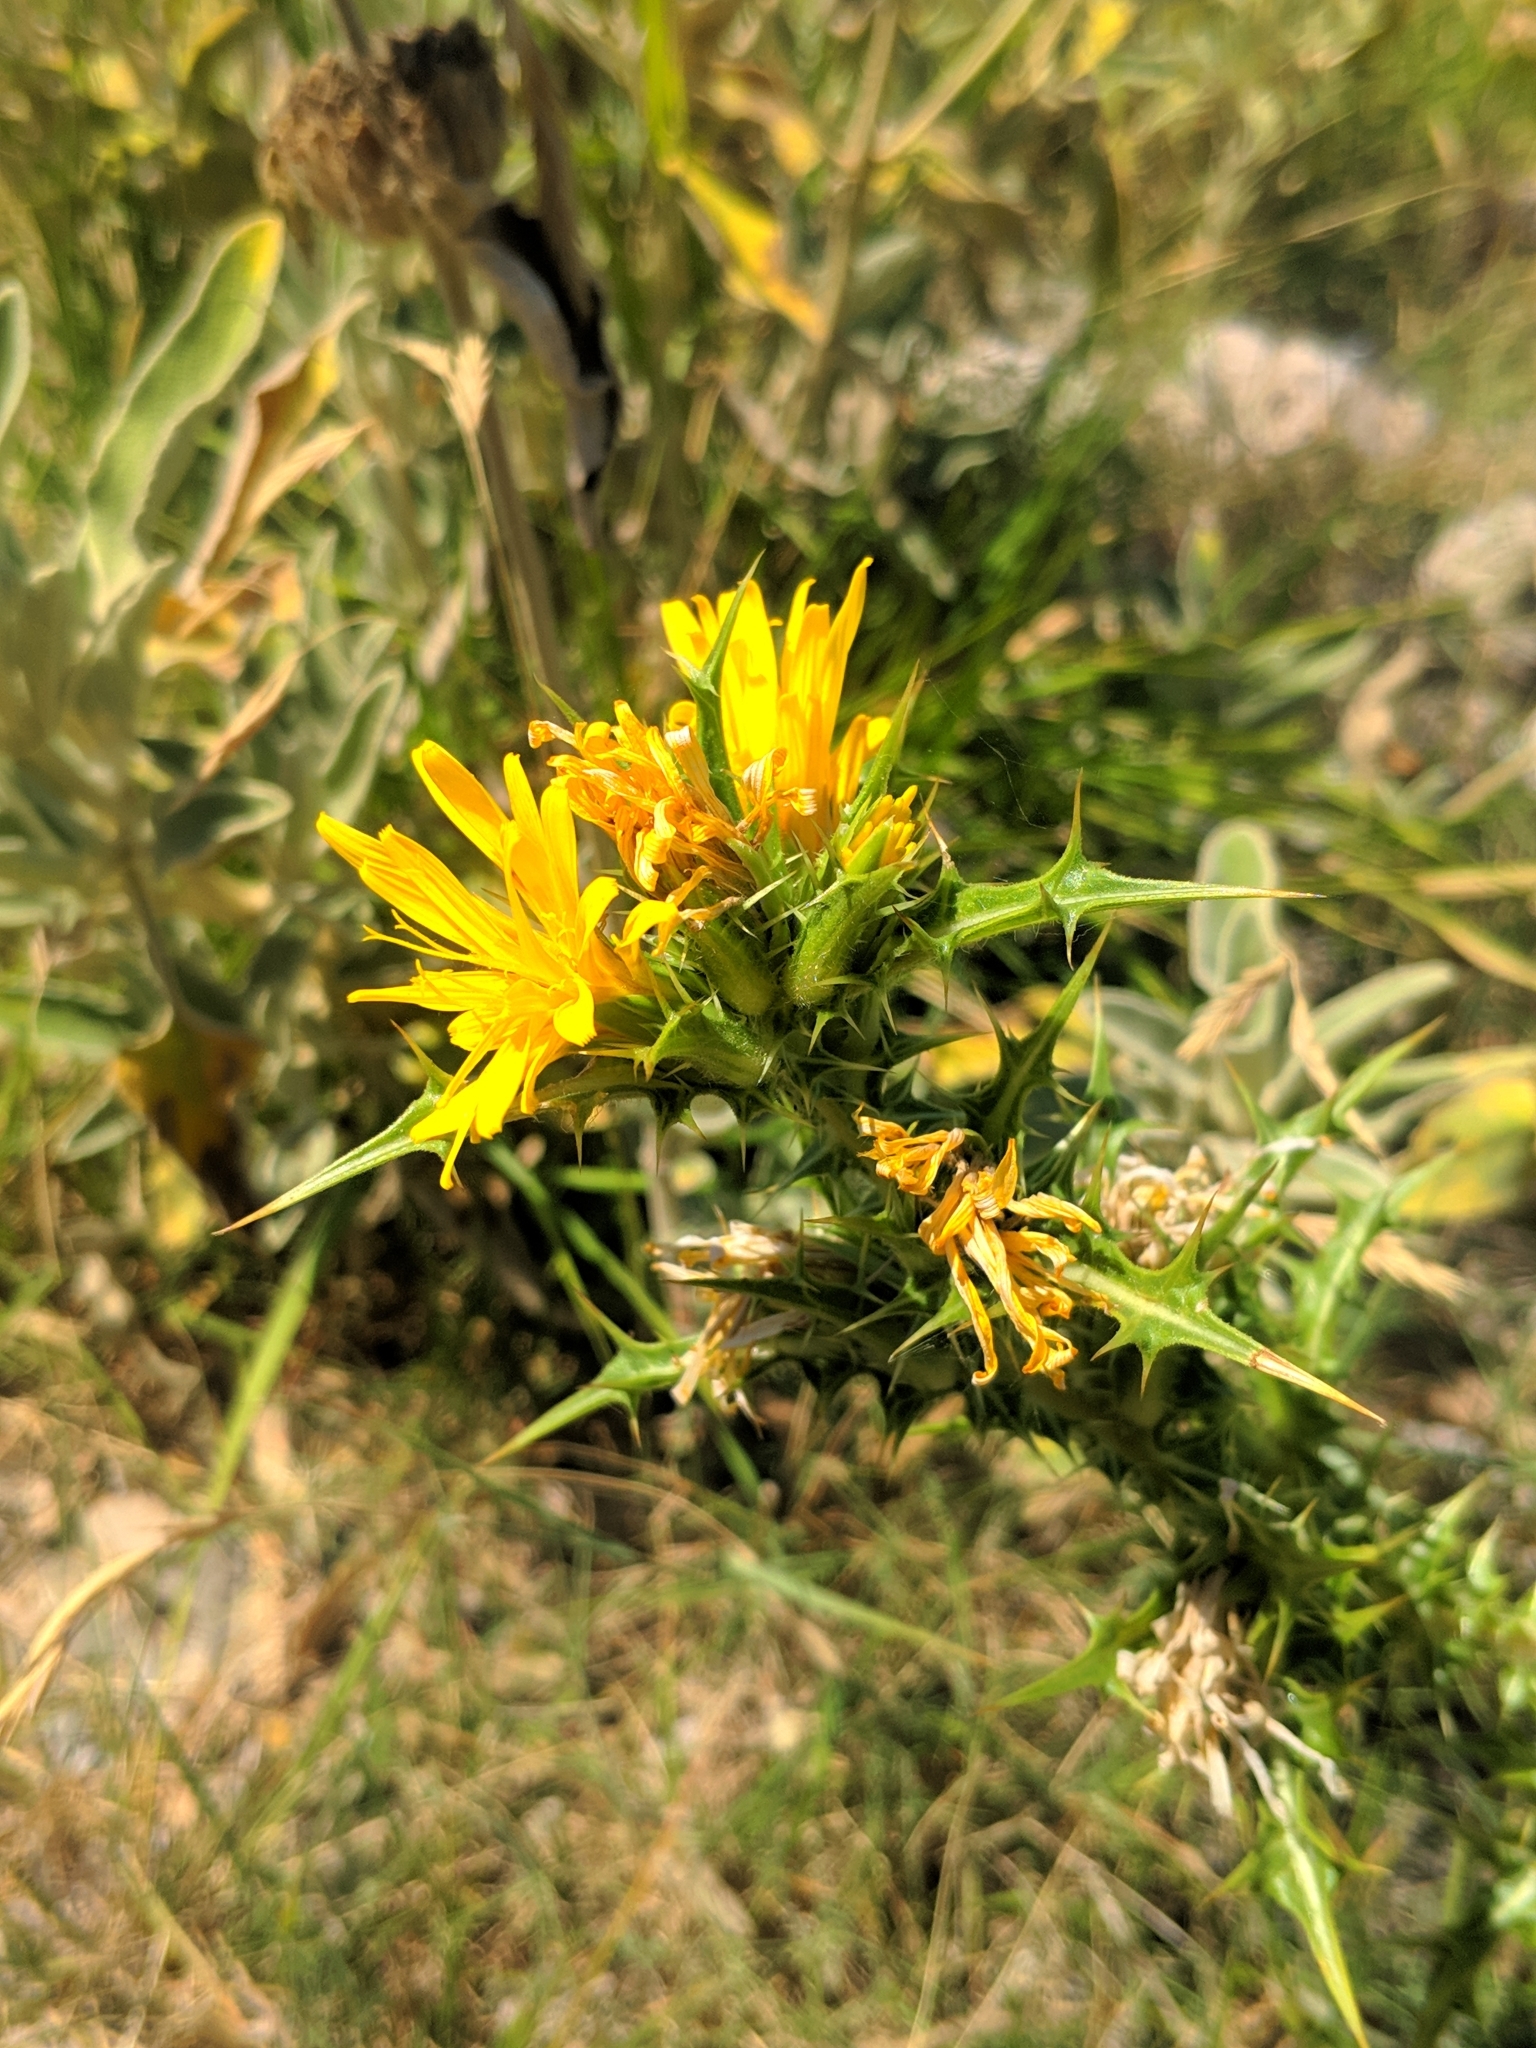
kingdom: Plantae
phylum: Tracheophyta
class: Magnoliopsida
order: Asterales
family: Asteraceae
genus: Scolymus
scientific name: Scolymus hispanicus
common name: Golden thistle
